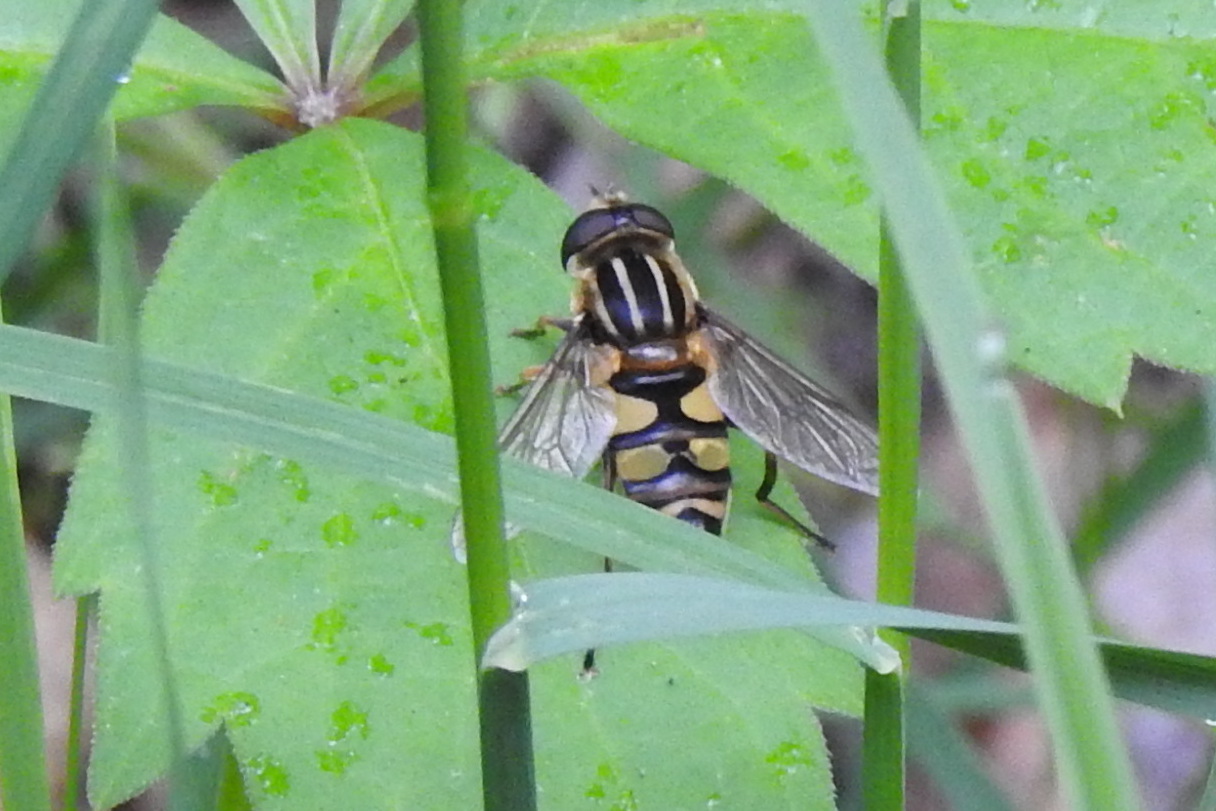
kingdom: Animalia
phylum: Arthropoda
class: Insecta
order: Diptera
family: Syrphidae
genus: Helophilus
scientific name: Helophilus fasciatus
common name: Narrow-headed marsh fly
